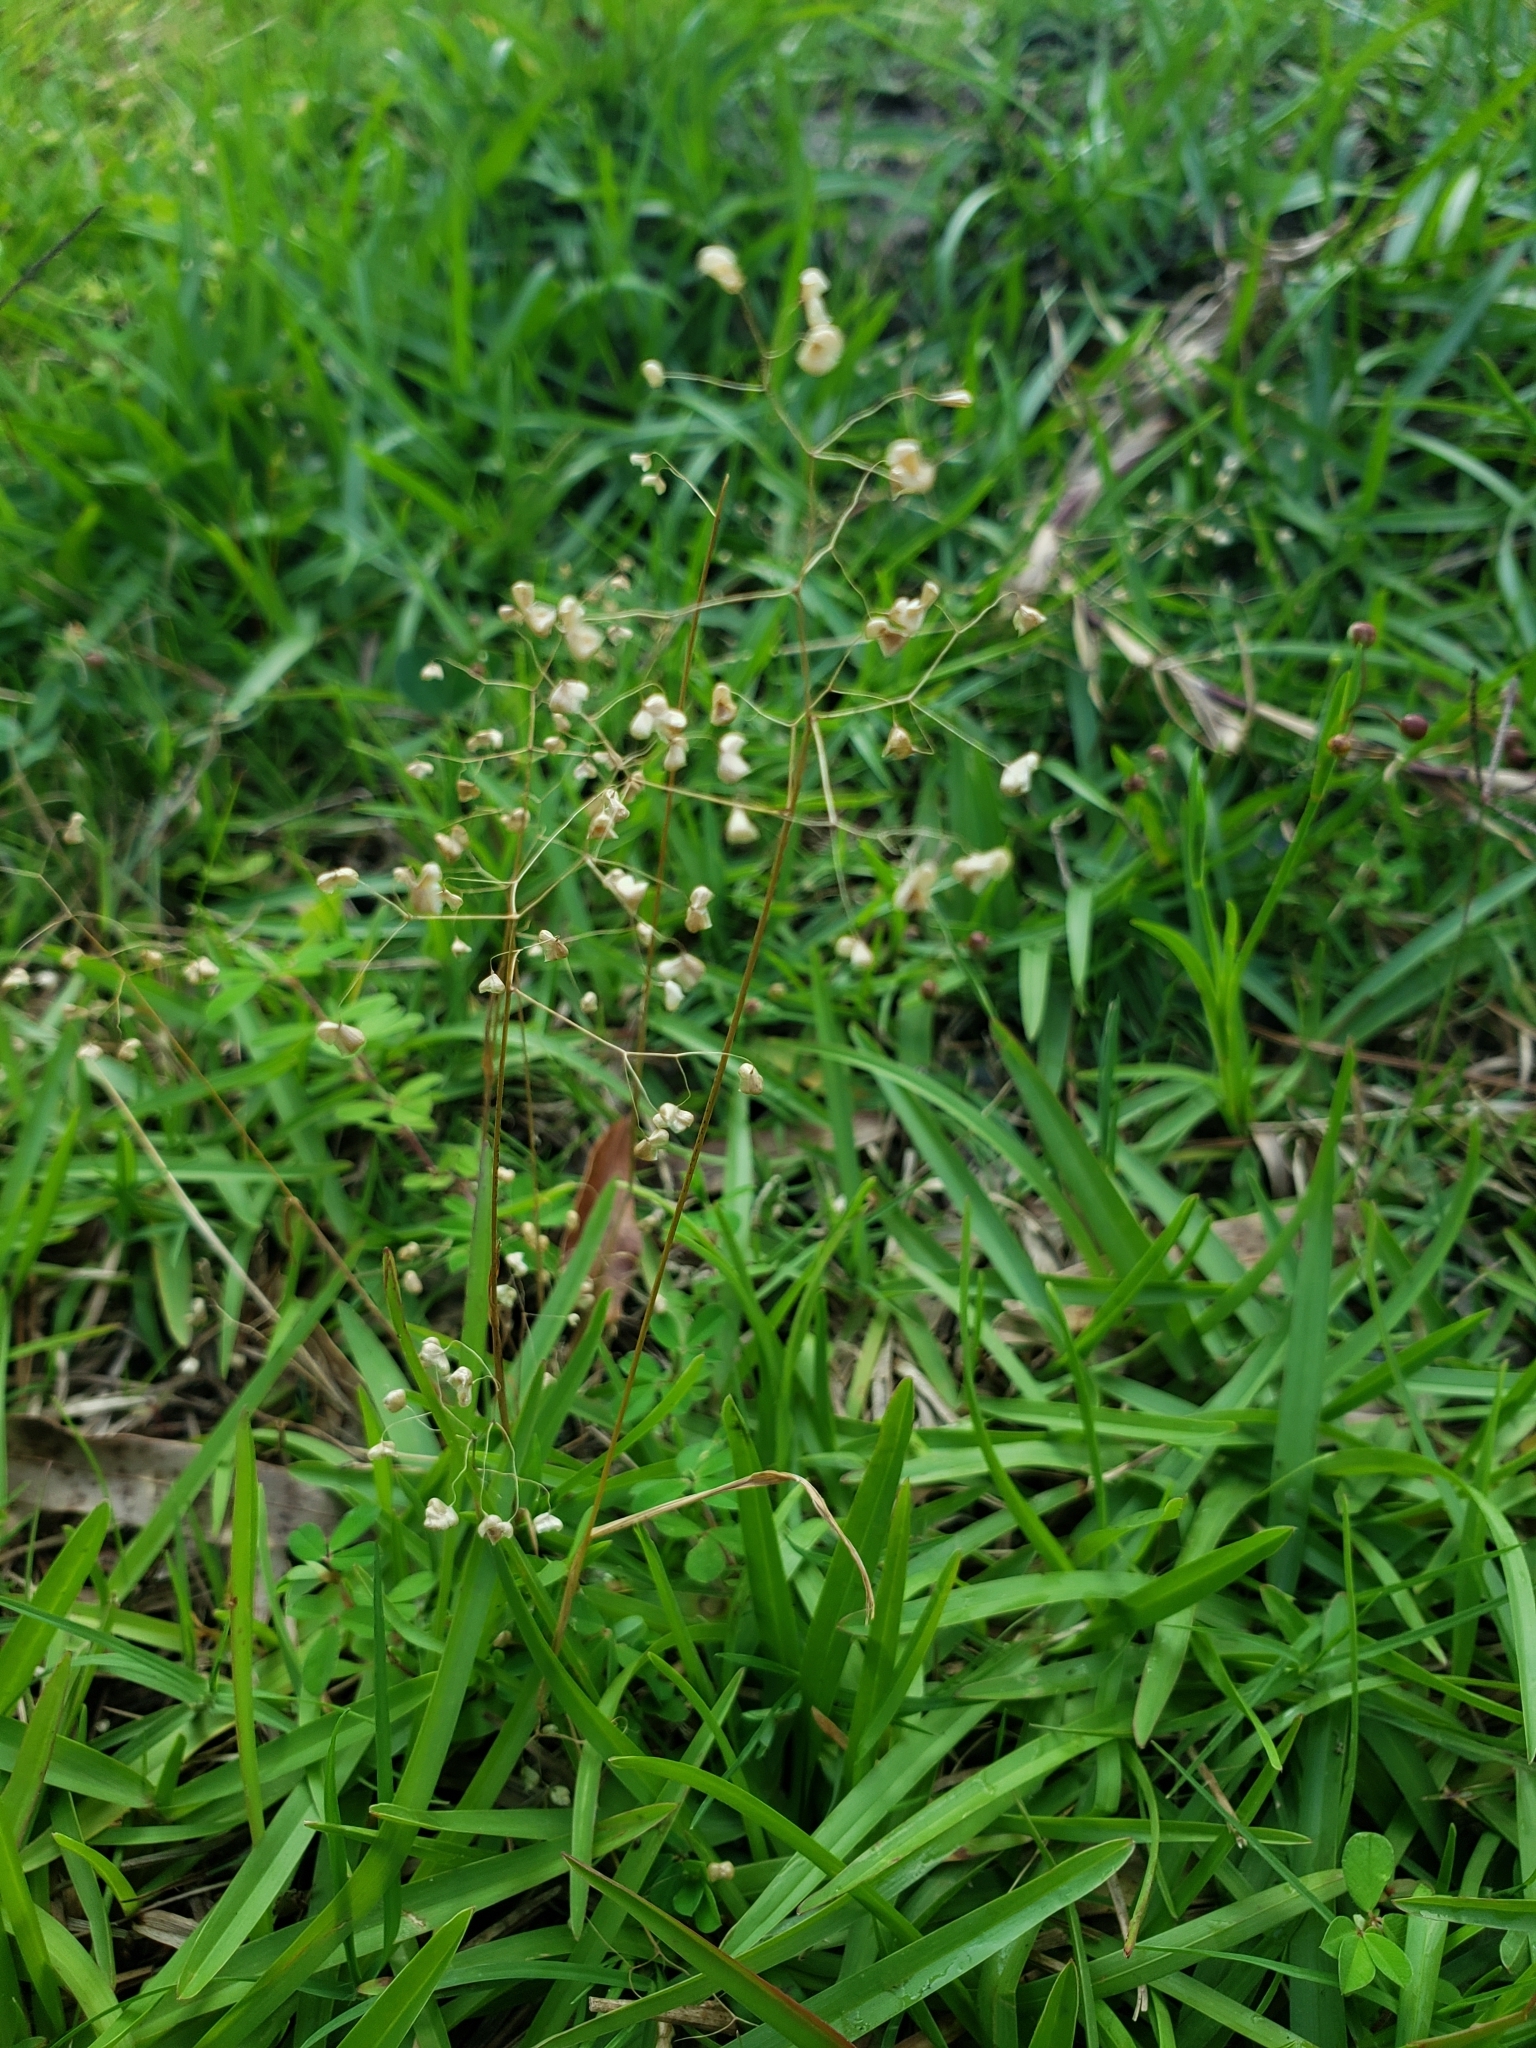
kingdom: Plantae
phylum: Tracheophyta
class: Liliopsida
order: Poales
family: Poaceae
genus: Briza
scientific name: Briza minor
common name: Lesser quaking-grass
